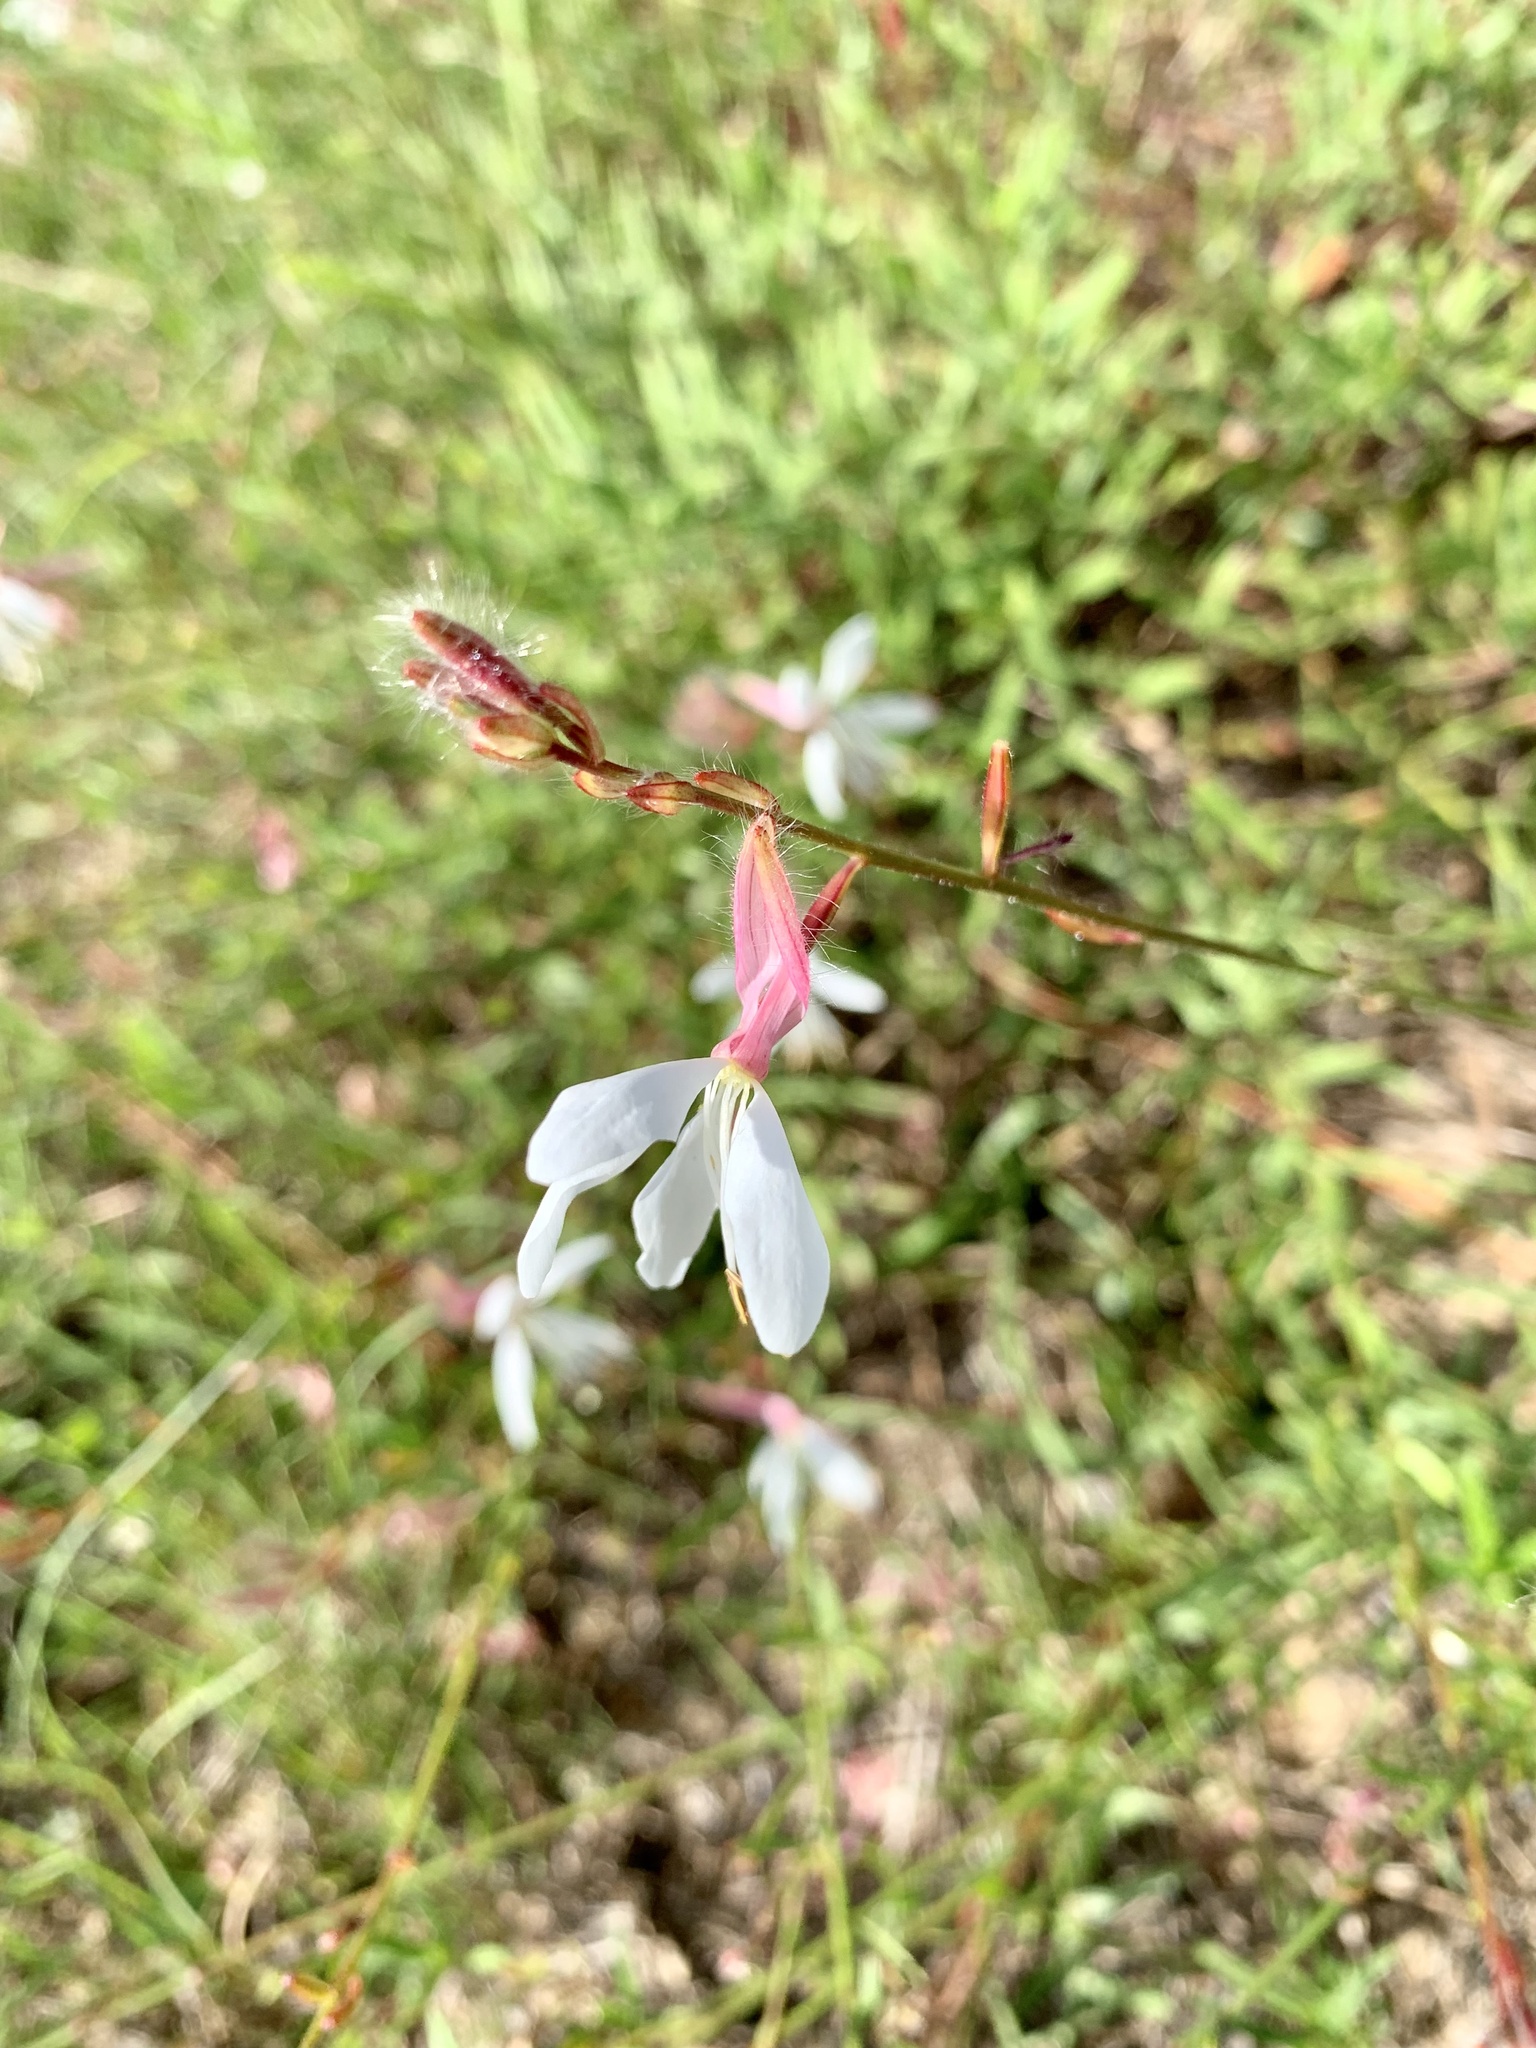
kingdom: Plantae
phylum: Tracheophyta
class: Magnoliopsida
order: Myrtales
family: Onagraceae
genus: Oenothera
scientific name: Oenothera lindheimeri
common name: Lindheimer's beeblossom
